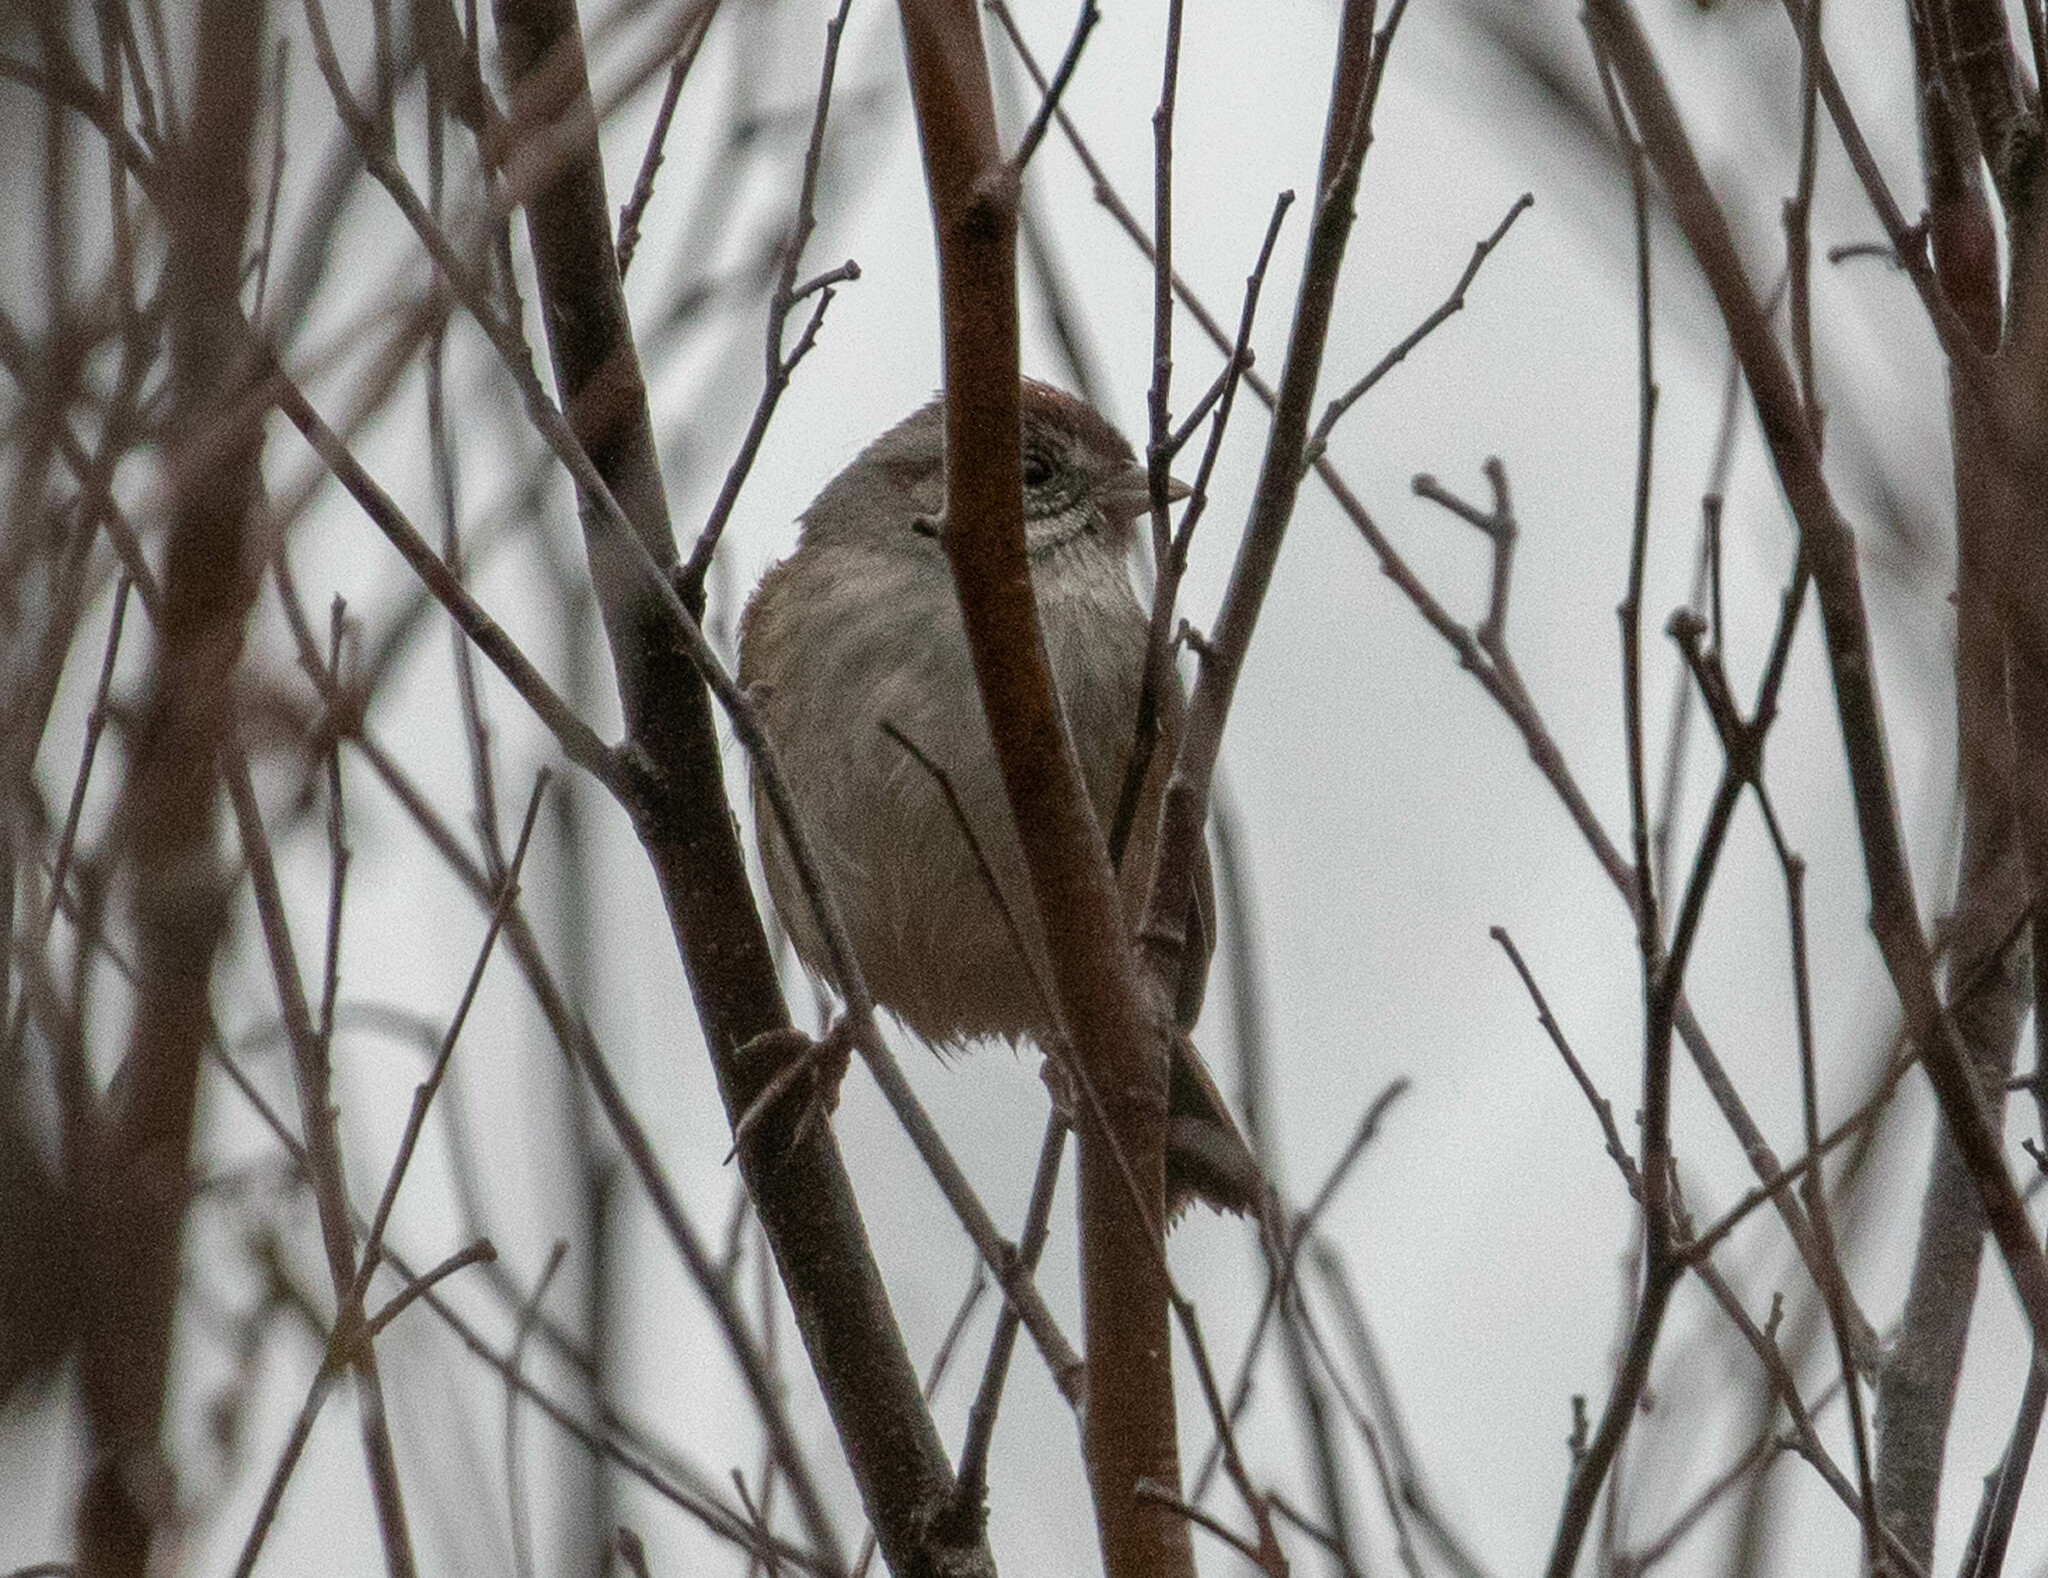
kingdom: Animalia
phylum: Chordata
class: Aves
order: Passeriformes
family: Passerellidae
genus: Melospiza
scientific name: Melospiza georgiana
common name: Swamp sparrow
